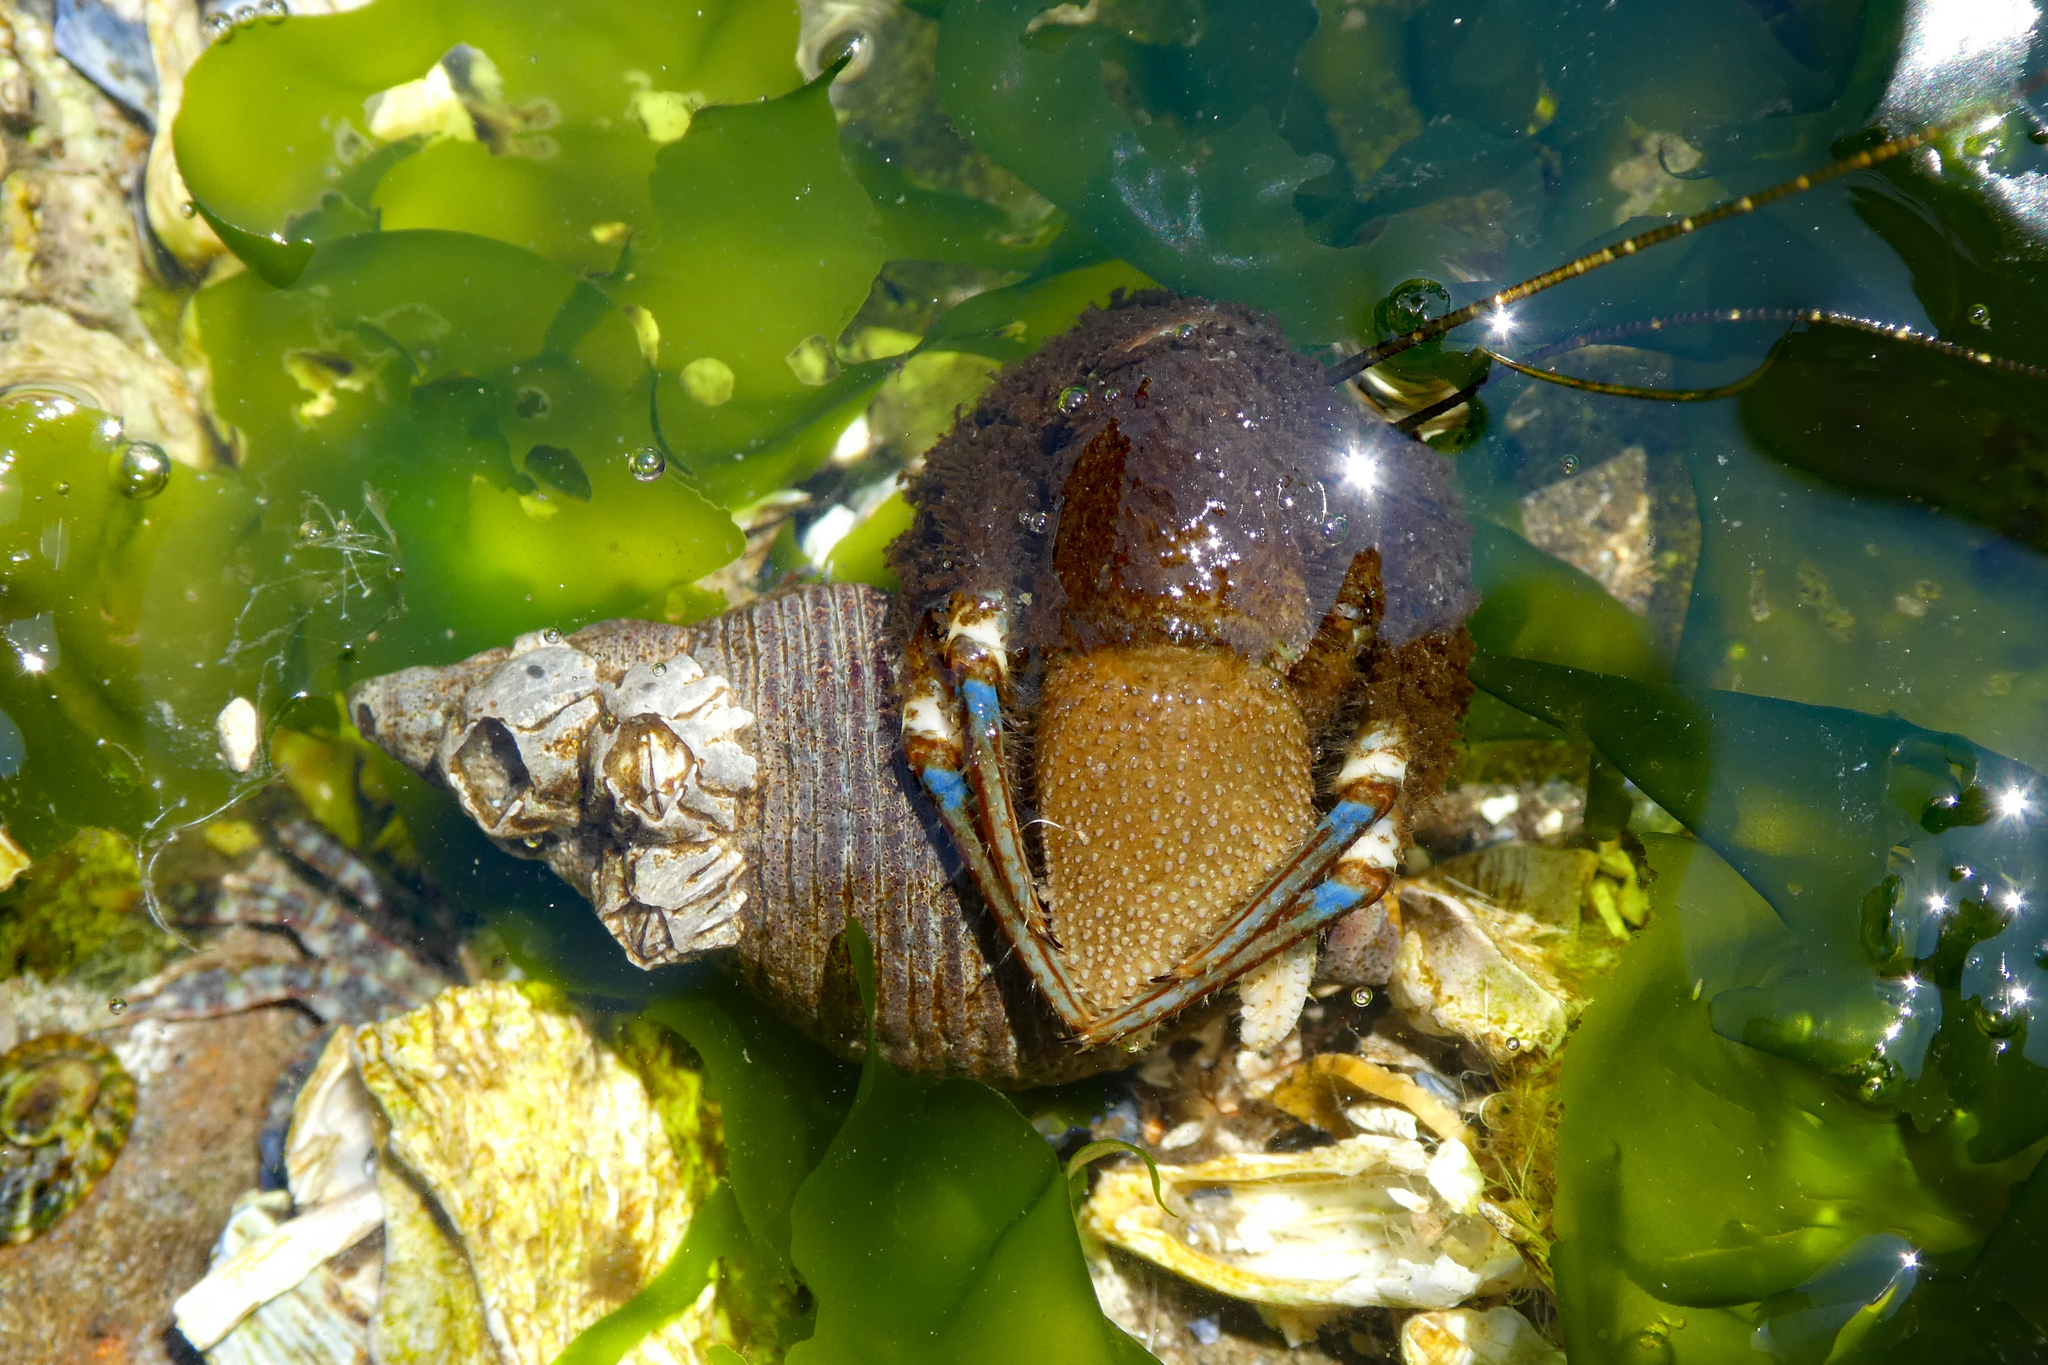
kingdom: Animalia
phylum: Arthropoda
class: Malacostraca
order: Decapoda
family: Paguridae
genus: Pagurus
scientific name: Pagurus hirsutiusculus
